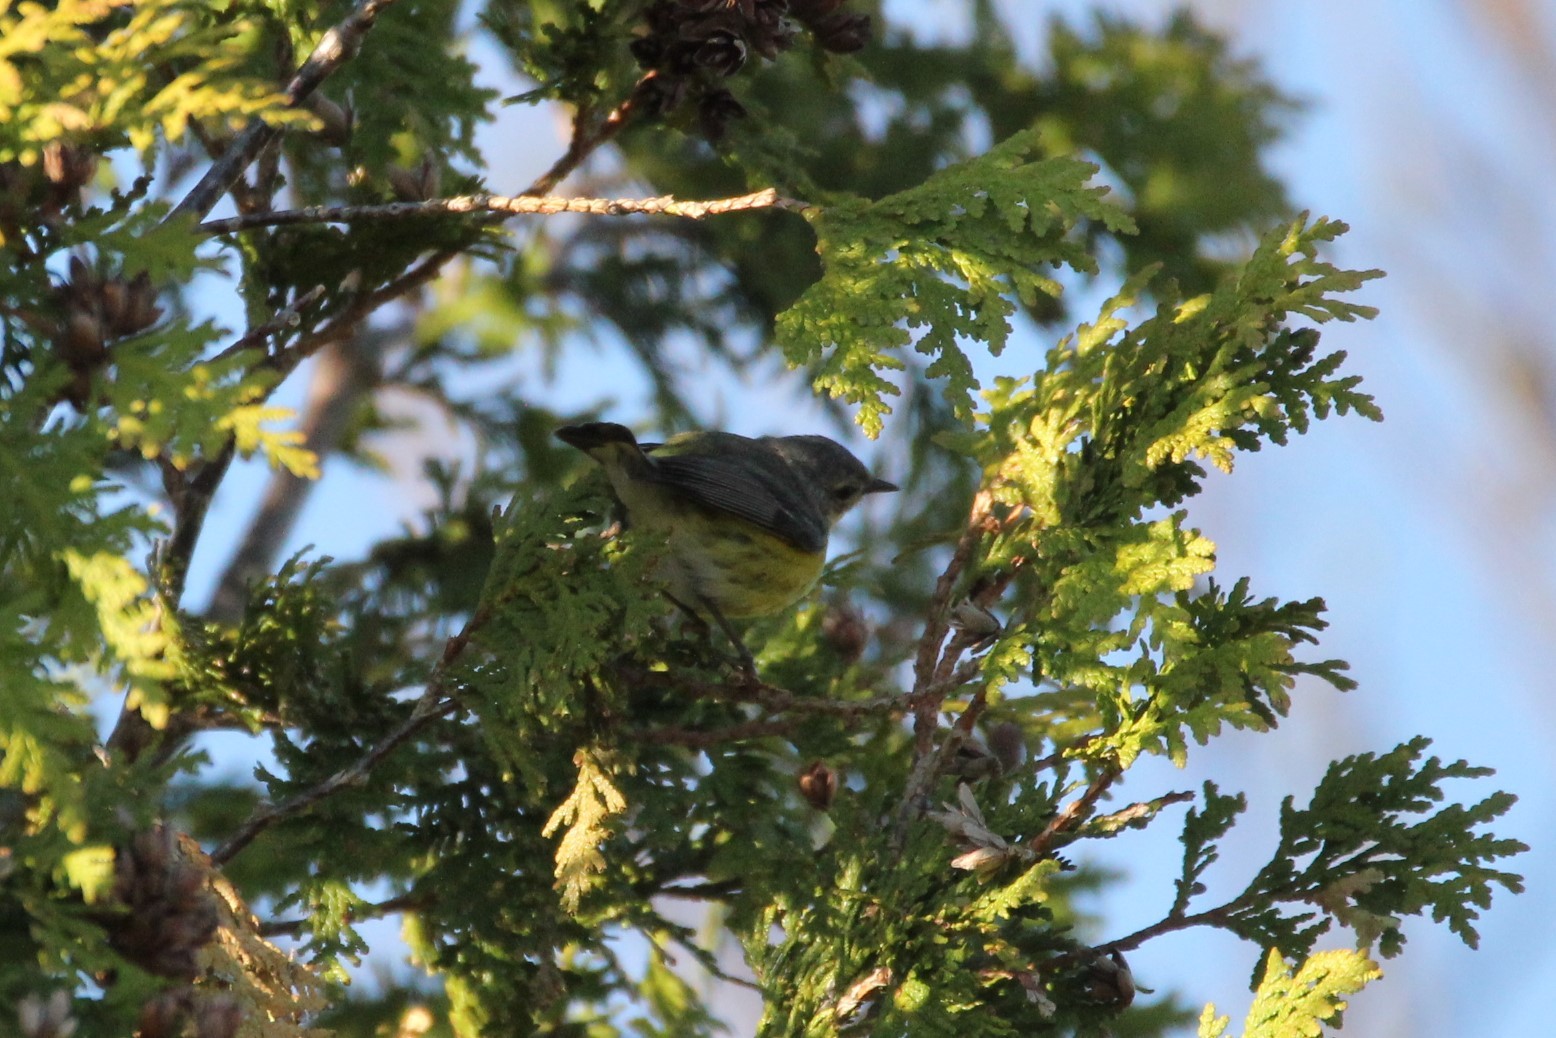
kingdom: Animalia
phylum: Chordata
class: Aves
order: Passeriformes
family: Parulidae
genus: Setophaga
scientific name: Setophaga magnolia
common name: Magnolia warbler
